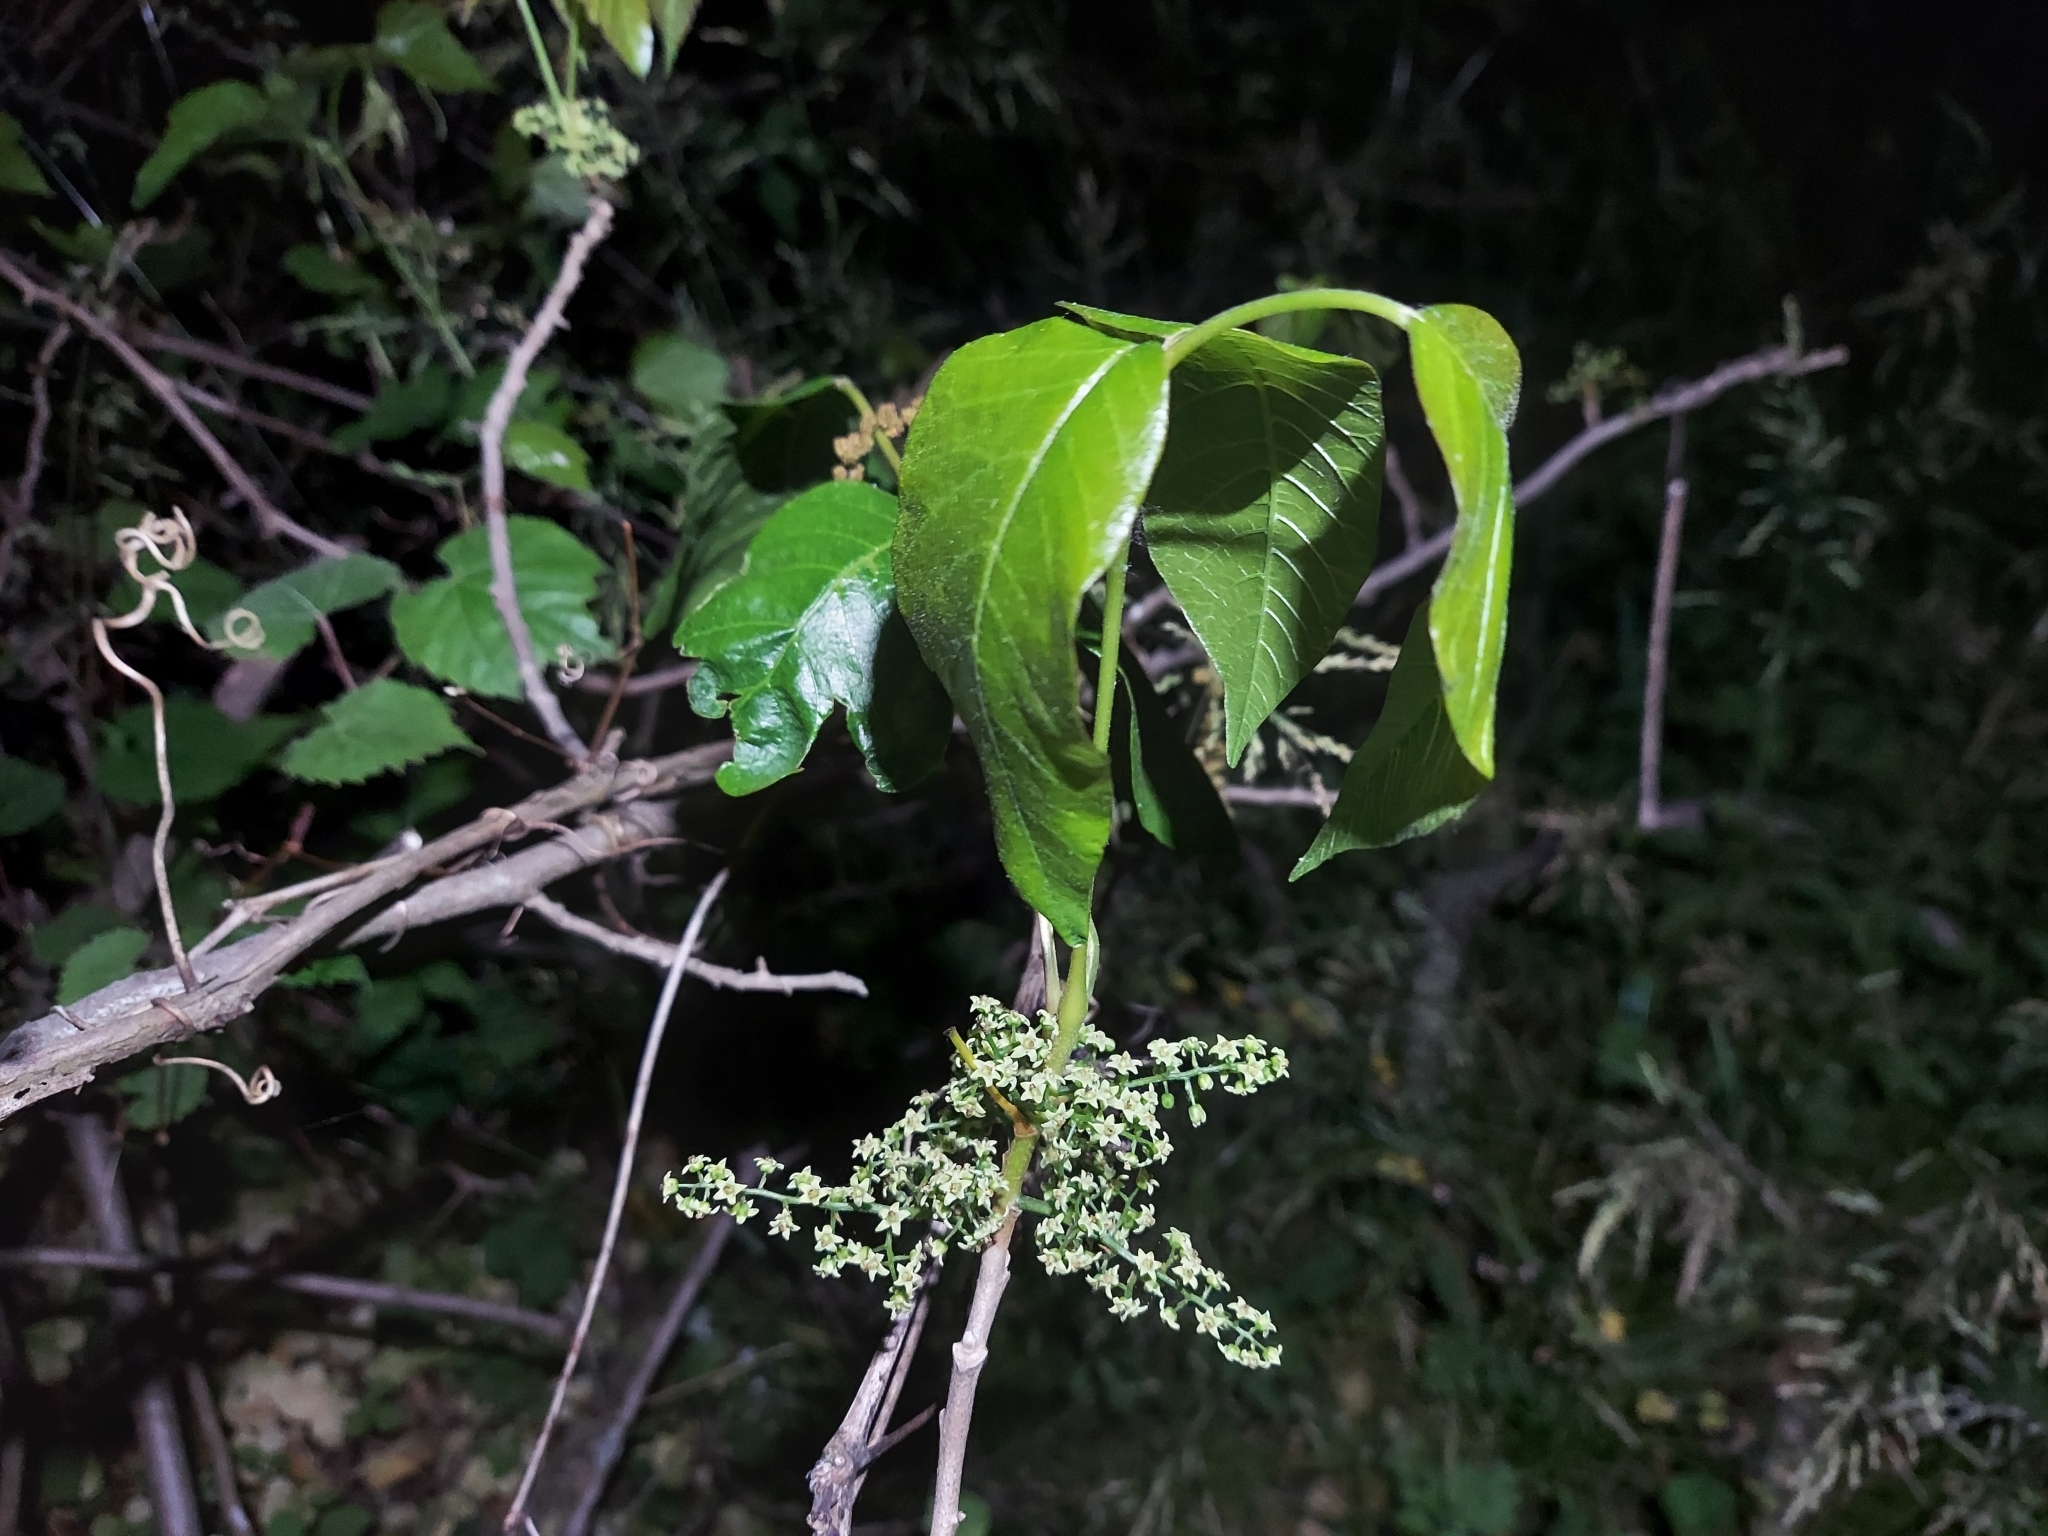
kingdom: Plantae
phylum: Tracheophyta
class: Magnoliopsida
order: Sapindales
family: Anacardiaceae
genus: Toxicodendron
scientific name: Toxicodendron radicans
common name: Poison ivy
